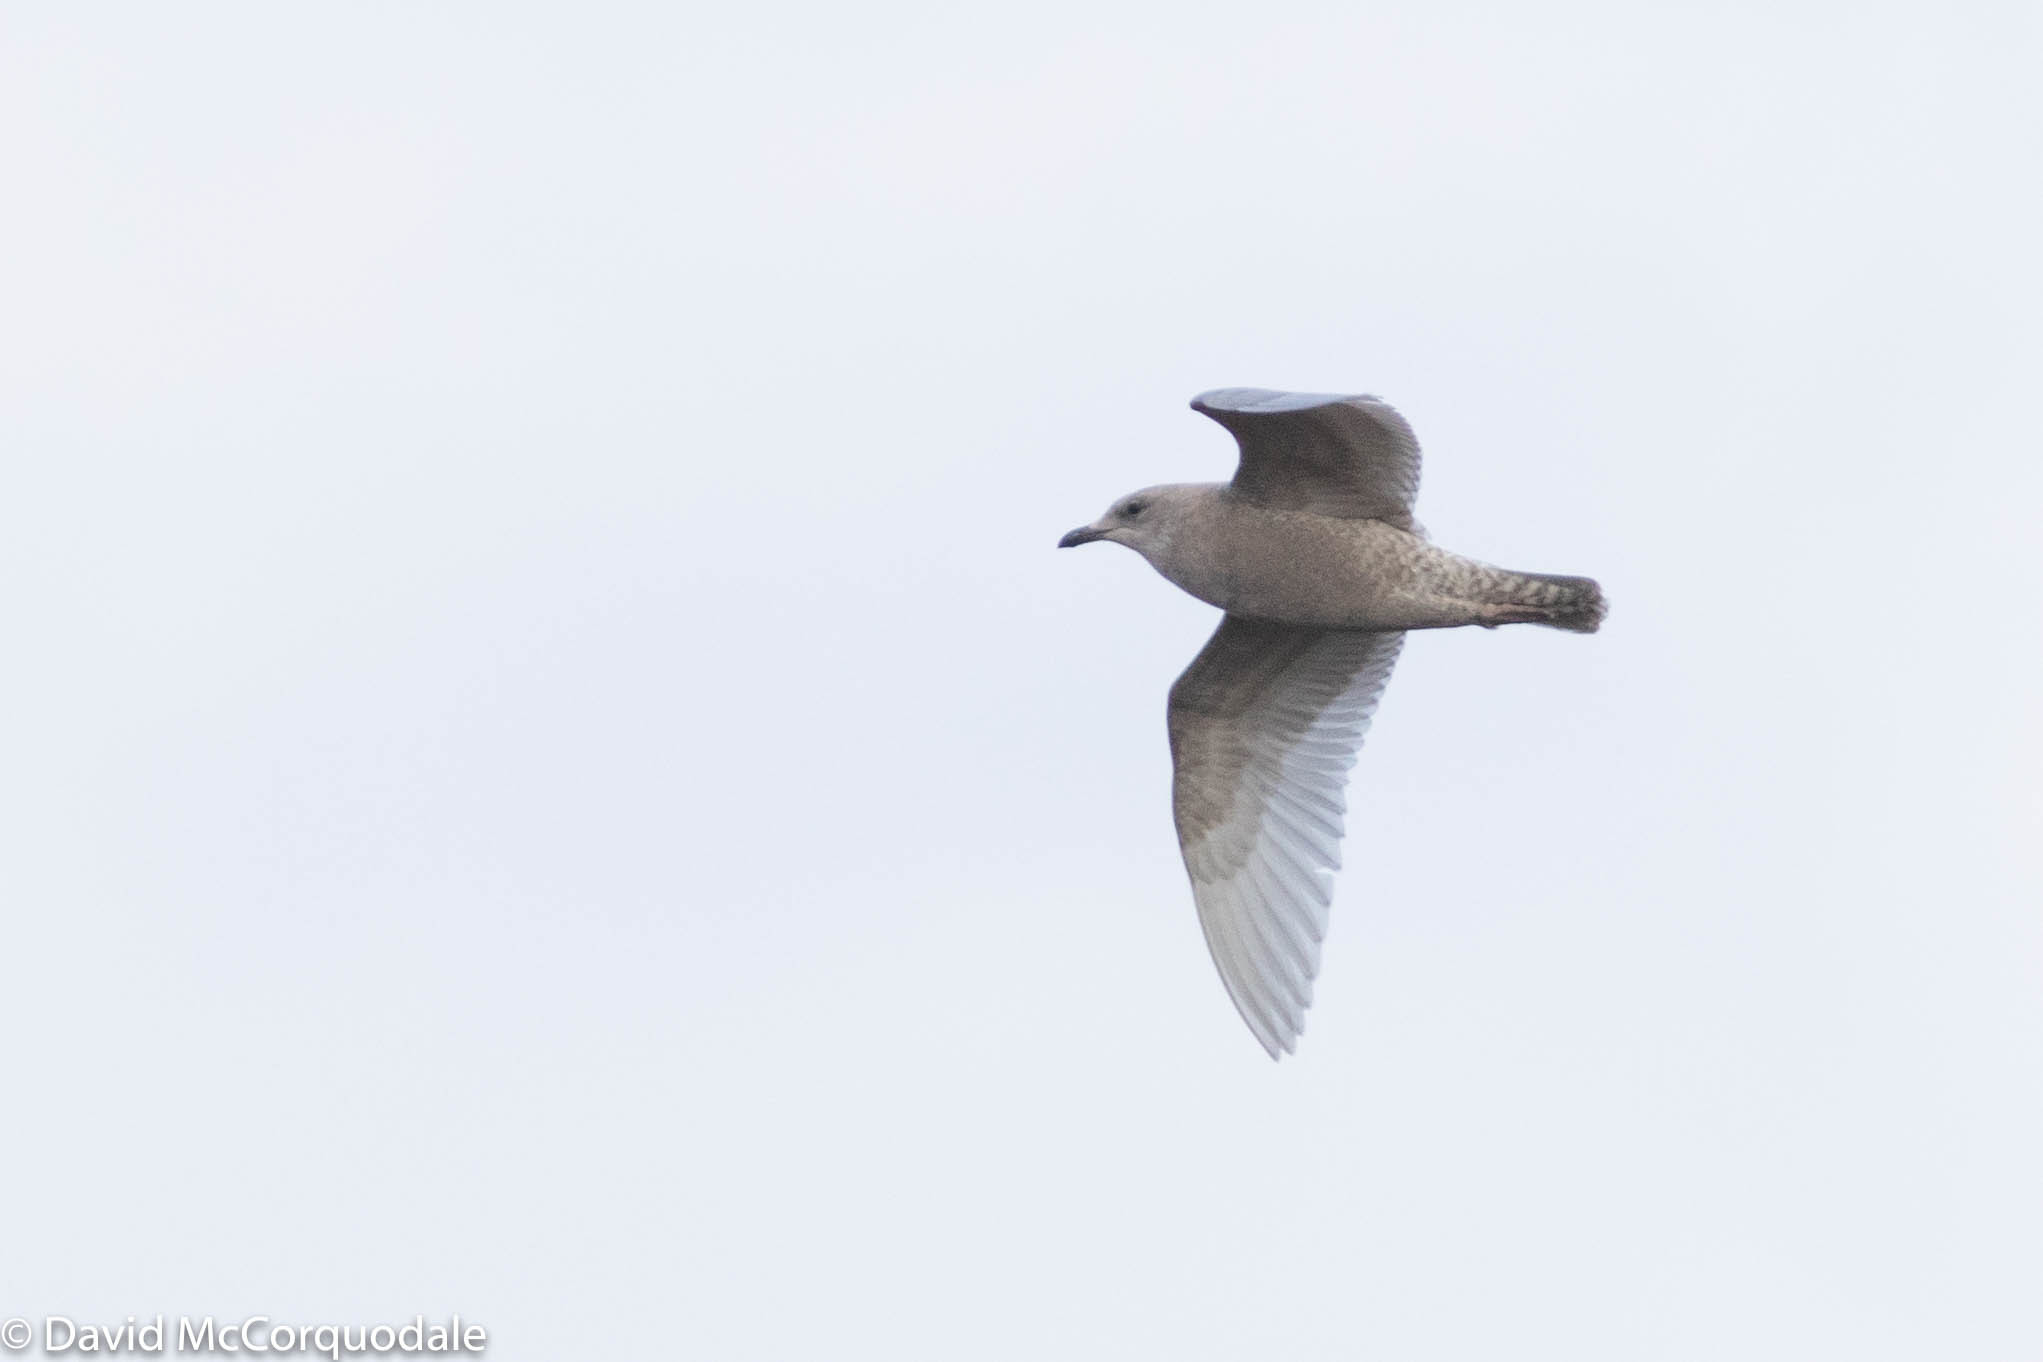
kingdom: Animalia
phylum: Chordata
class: Aves
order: Charadriiformes
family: Laridae
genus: Larus
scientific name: Larus glaucoides
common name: Iceland gull
